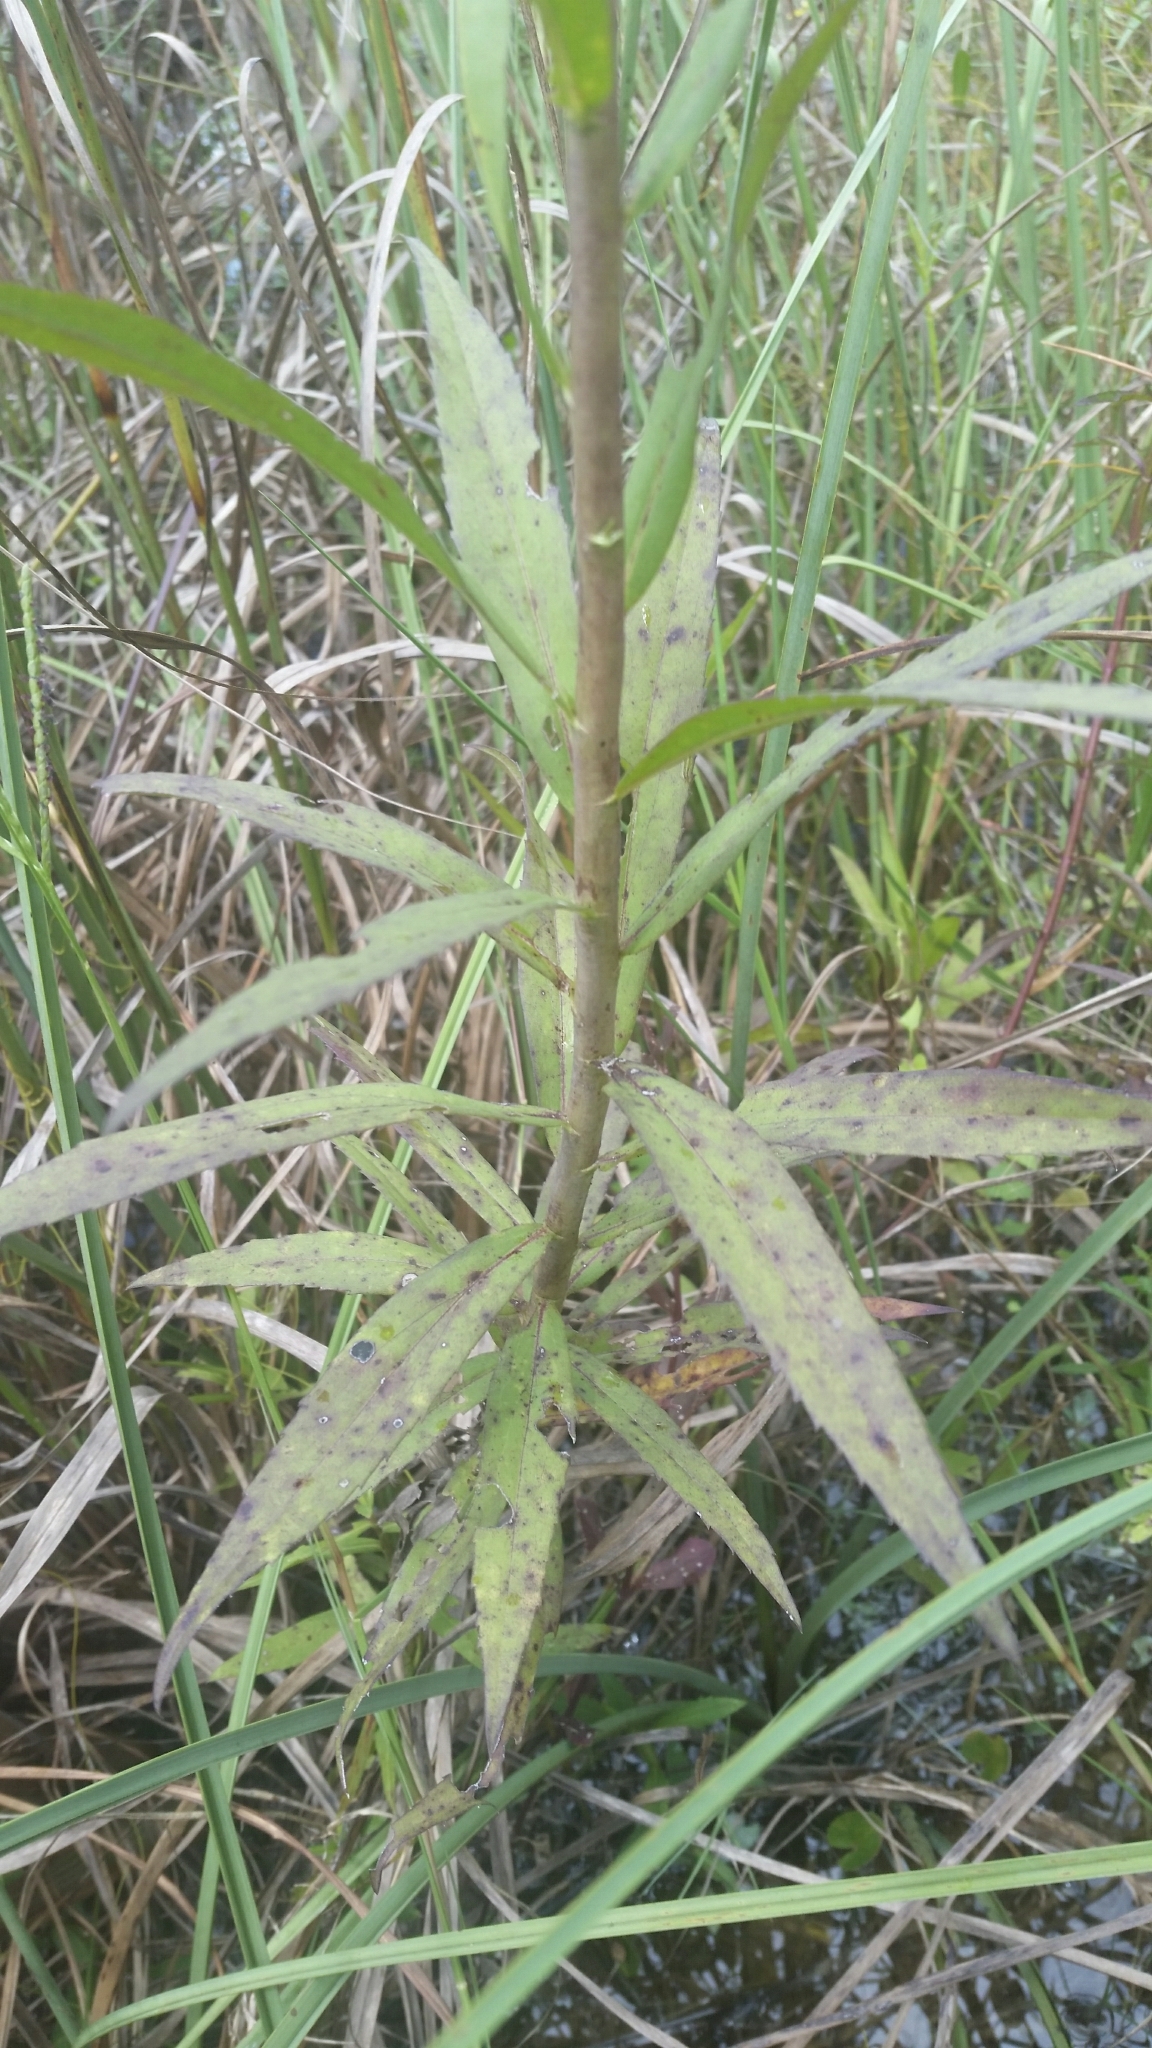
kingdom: Plantae
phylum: Tracheophyta
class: Magnoliopsida
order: Asterales
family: Asteraceae
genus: Solidago
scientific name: Solidago leavenworthii
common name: Leavenworth's goldenrod
